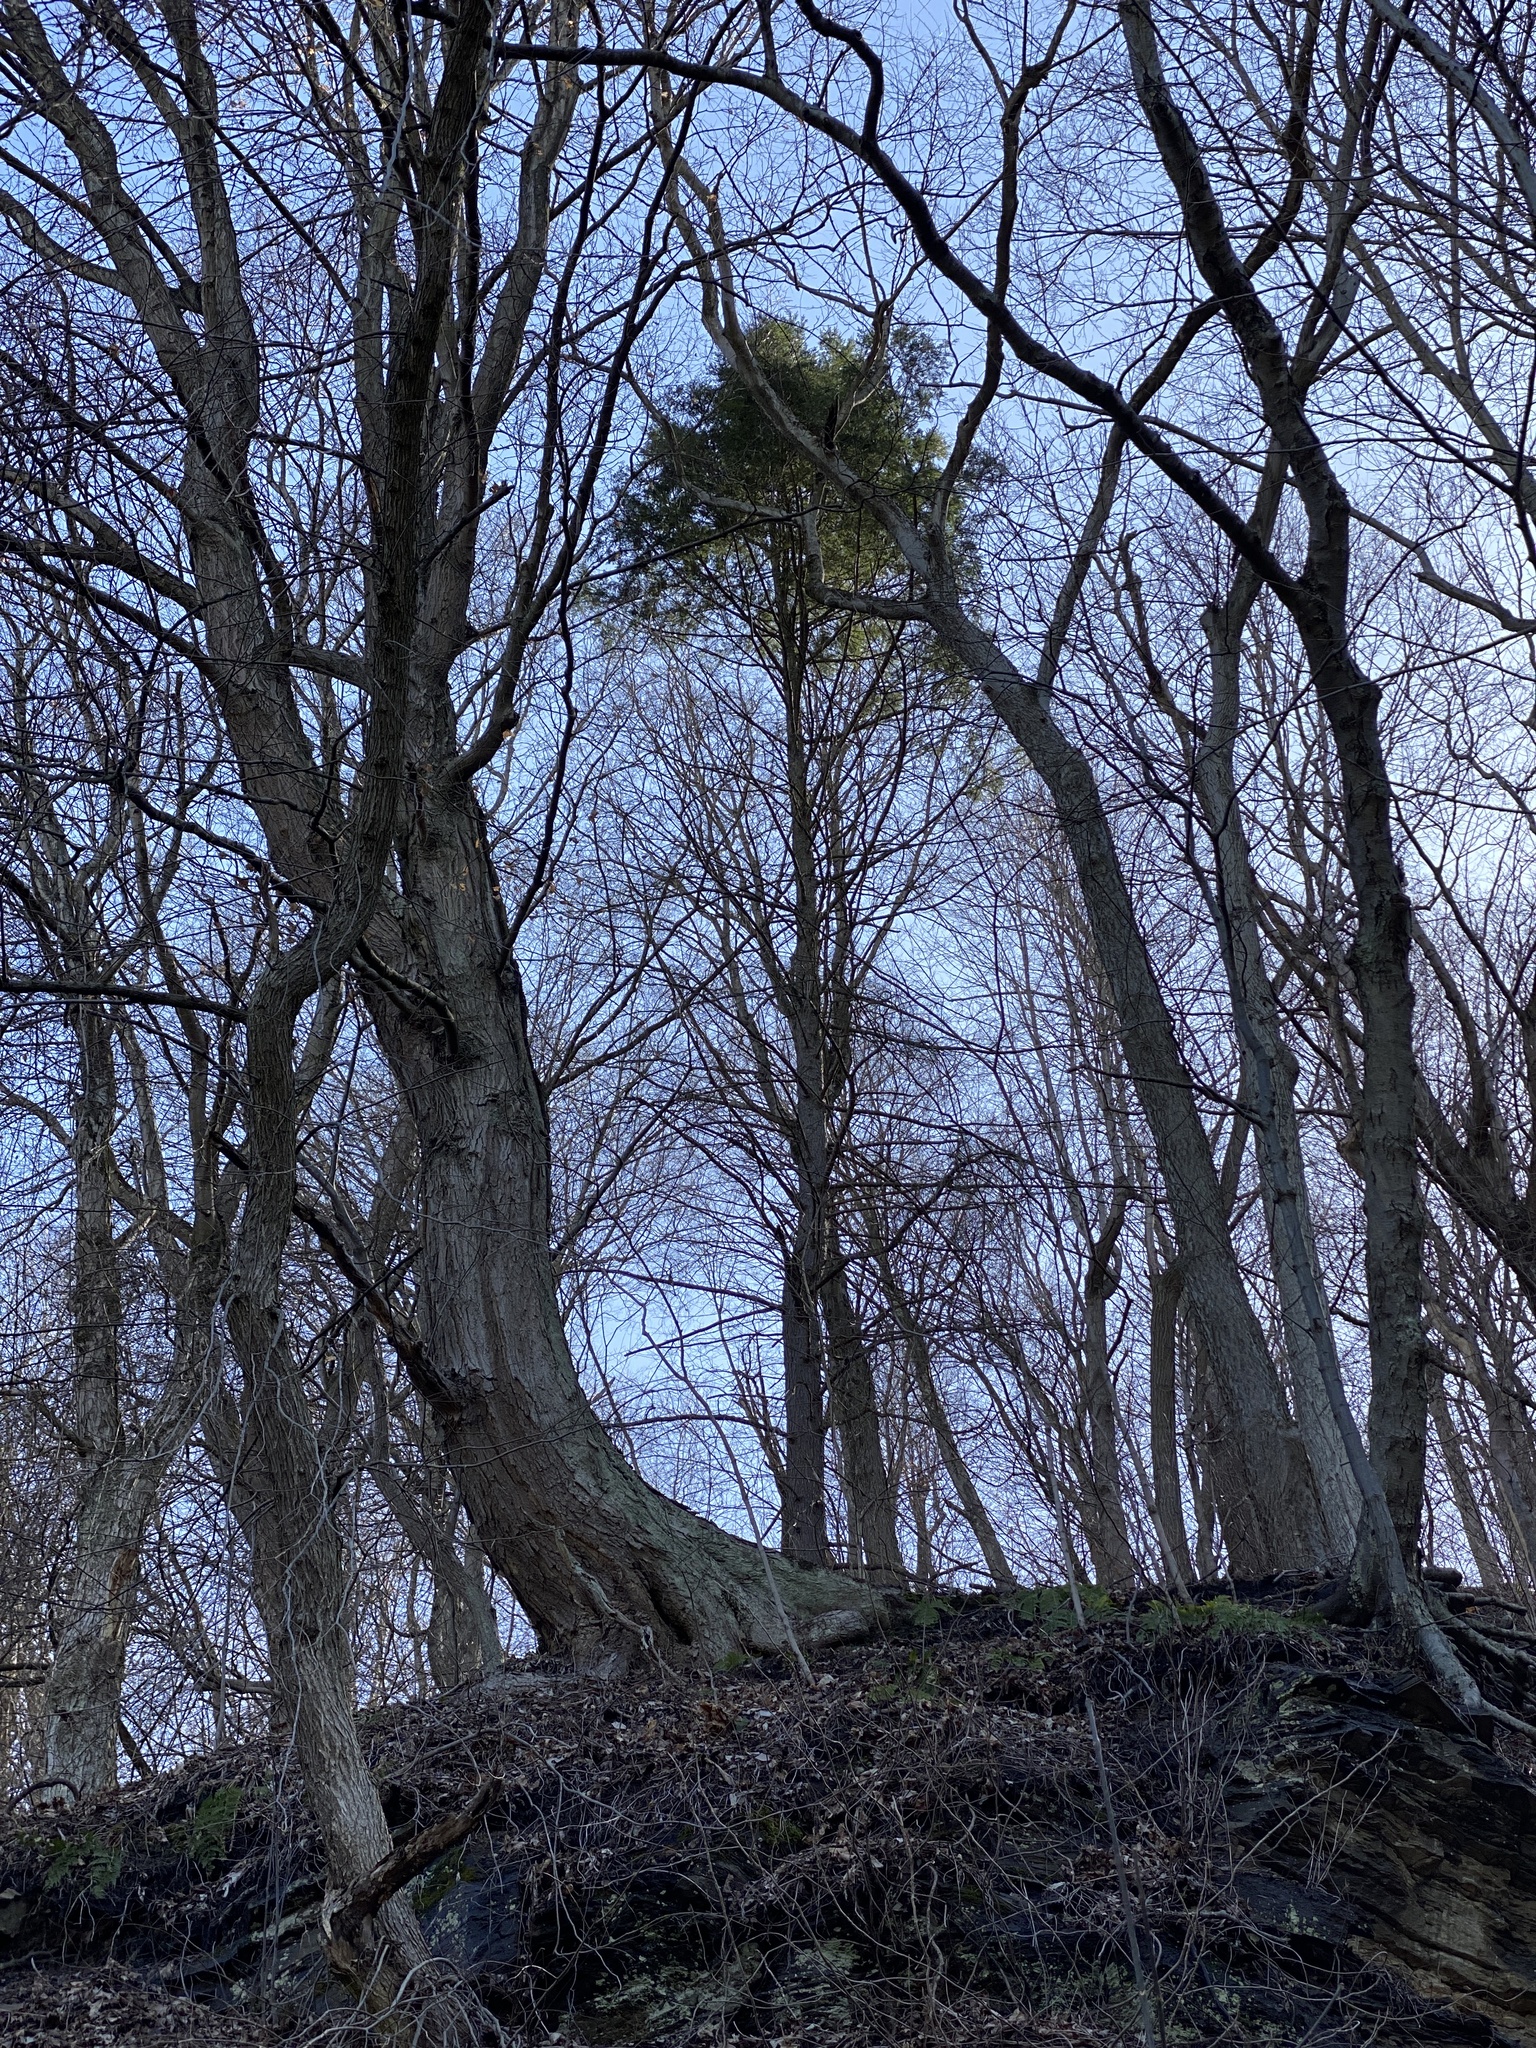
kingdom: Plantae
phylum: Tracheophyta
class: Pinopsida
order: Pinales
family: Pinaceae
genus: Pinus
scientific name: Pinus strobus
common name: Weymouth pine
